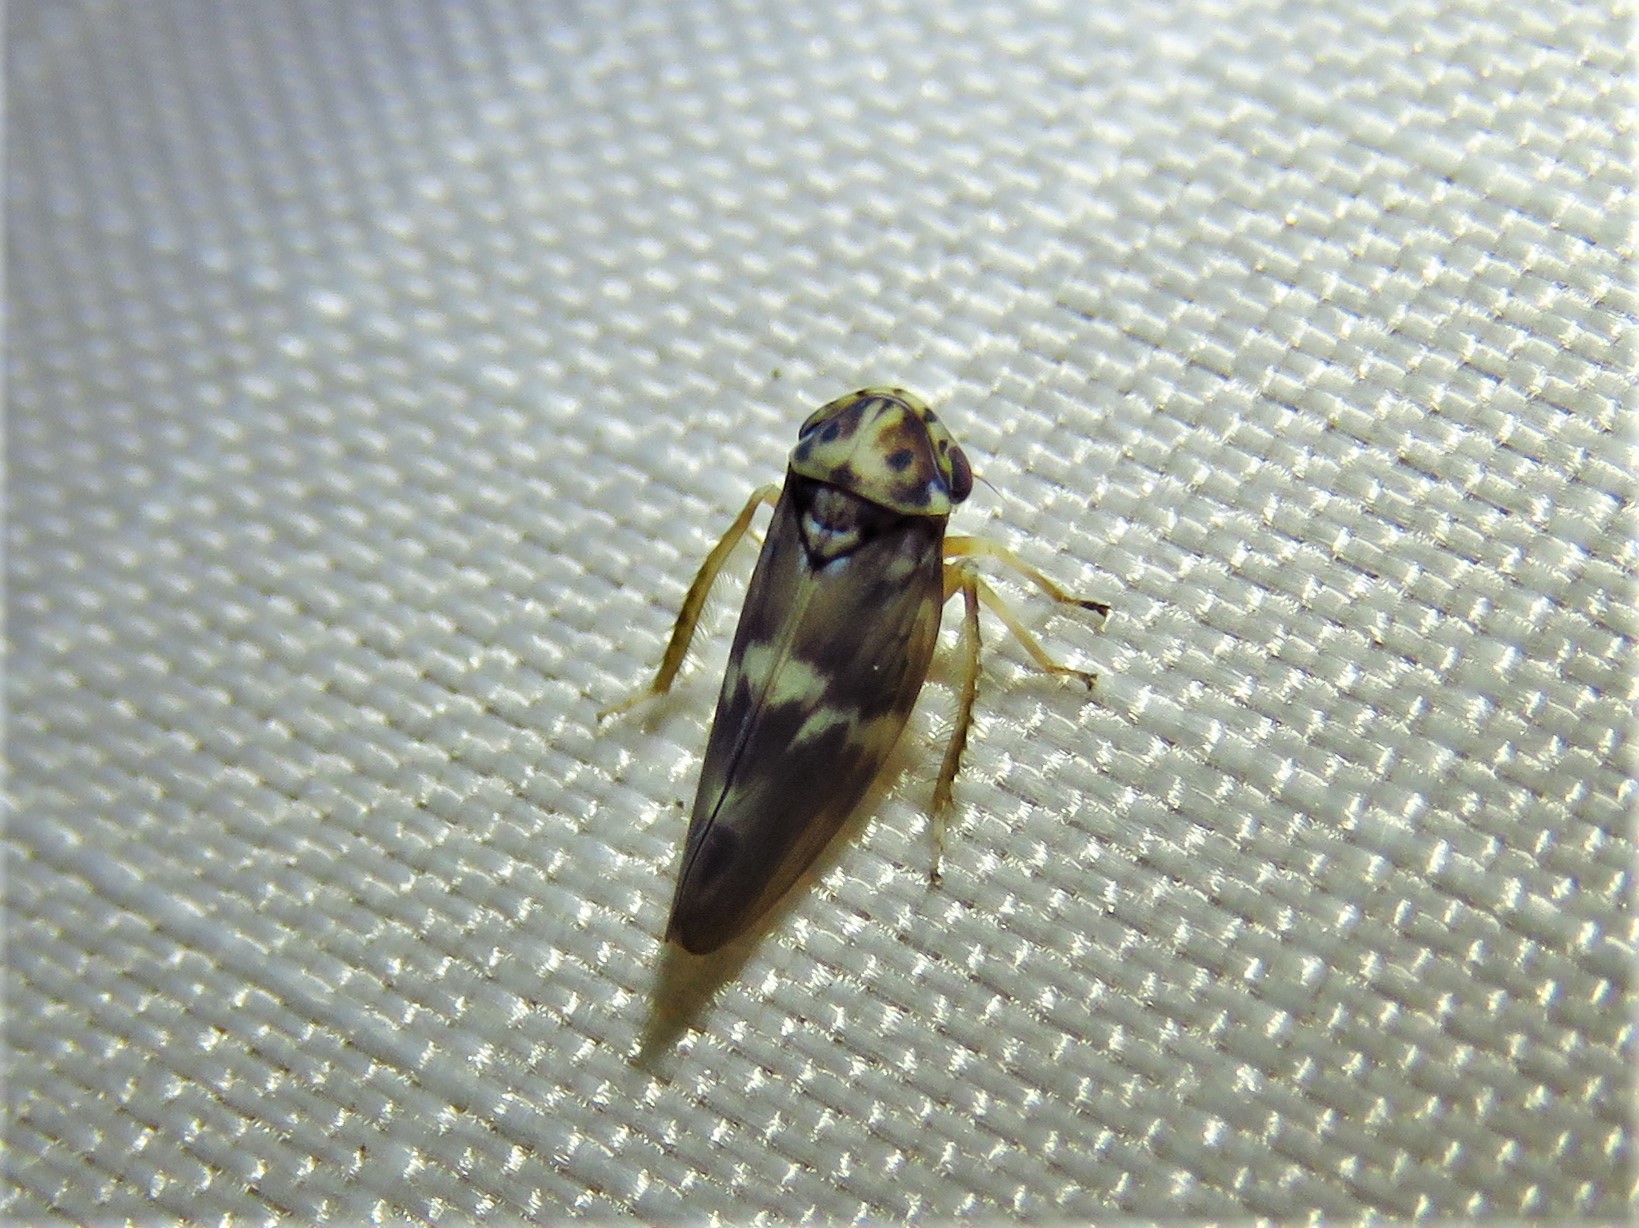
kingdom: Animalia
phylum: Arthropoda
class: Insecta
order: Hemiptera
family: Cicadellidae
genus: Agalliopsis
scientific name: Agalliopsis cervina
